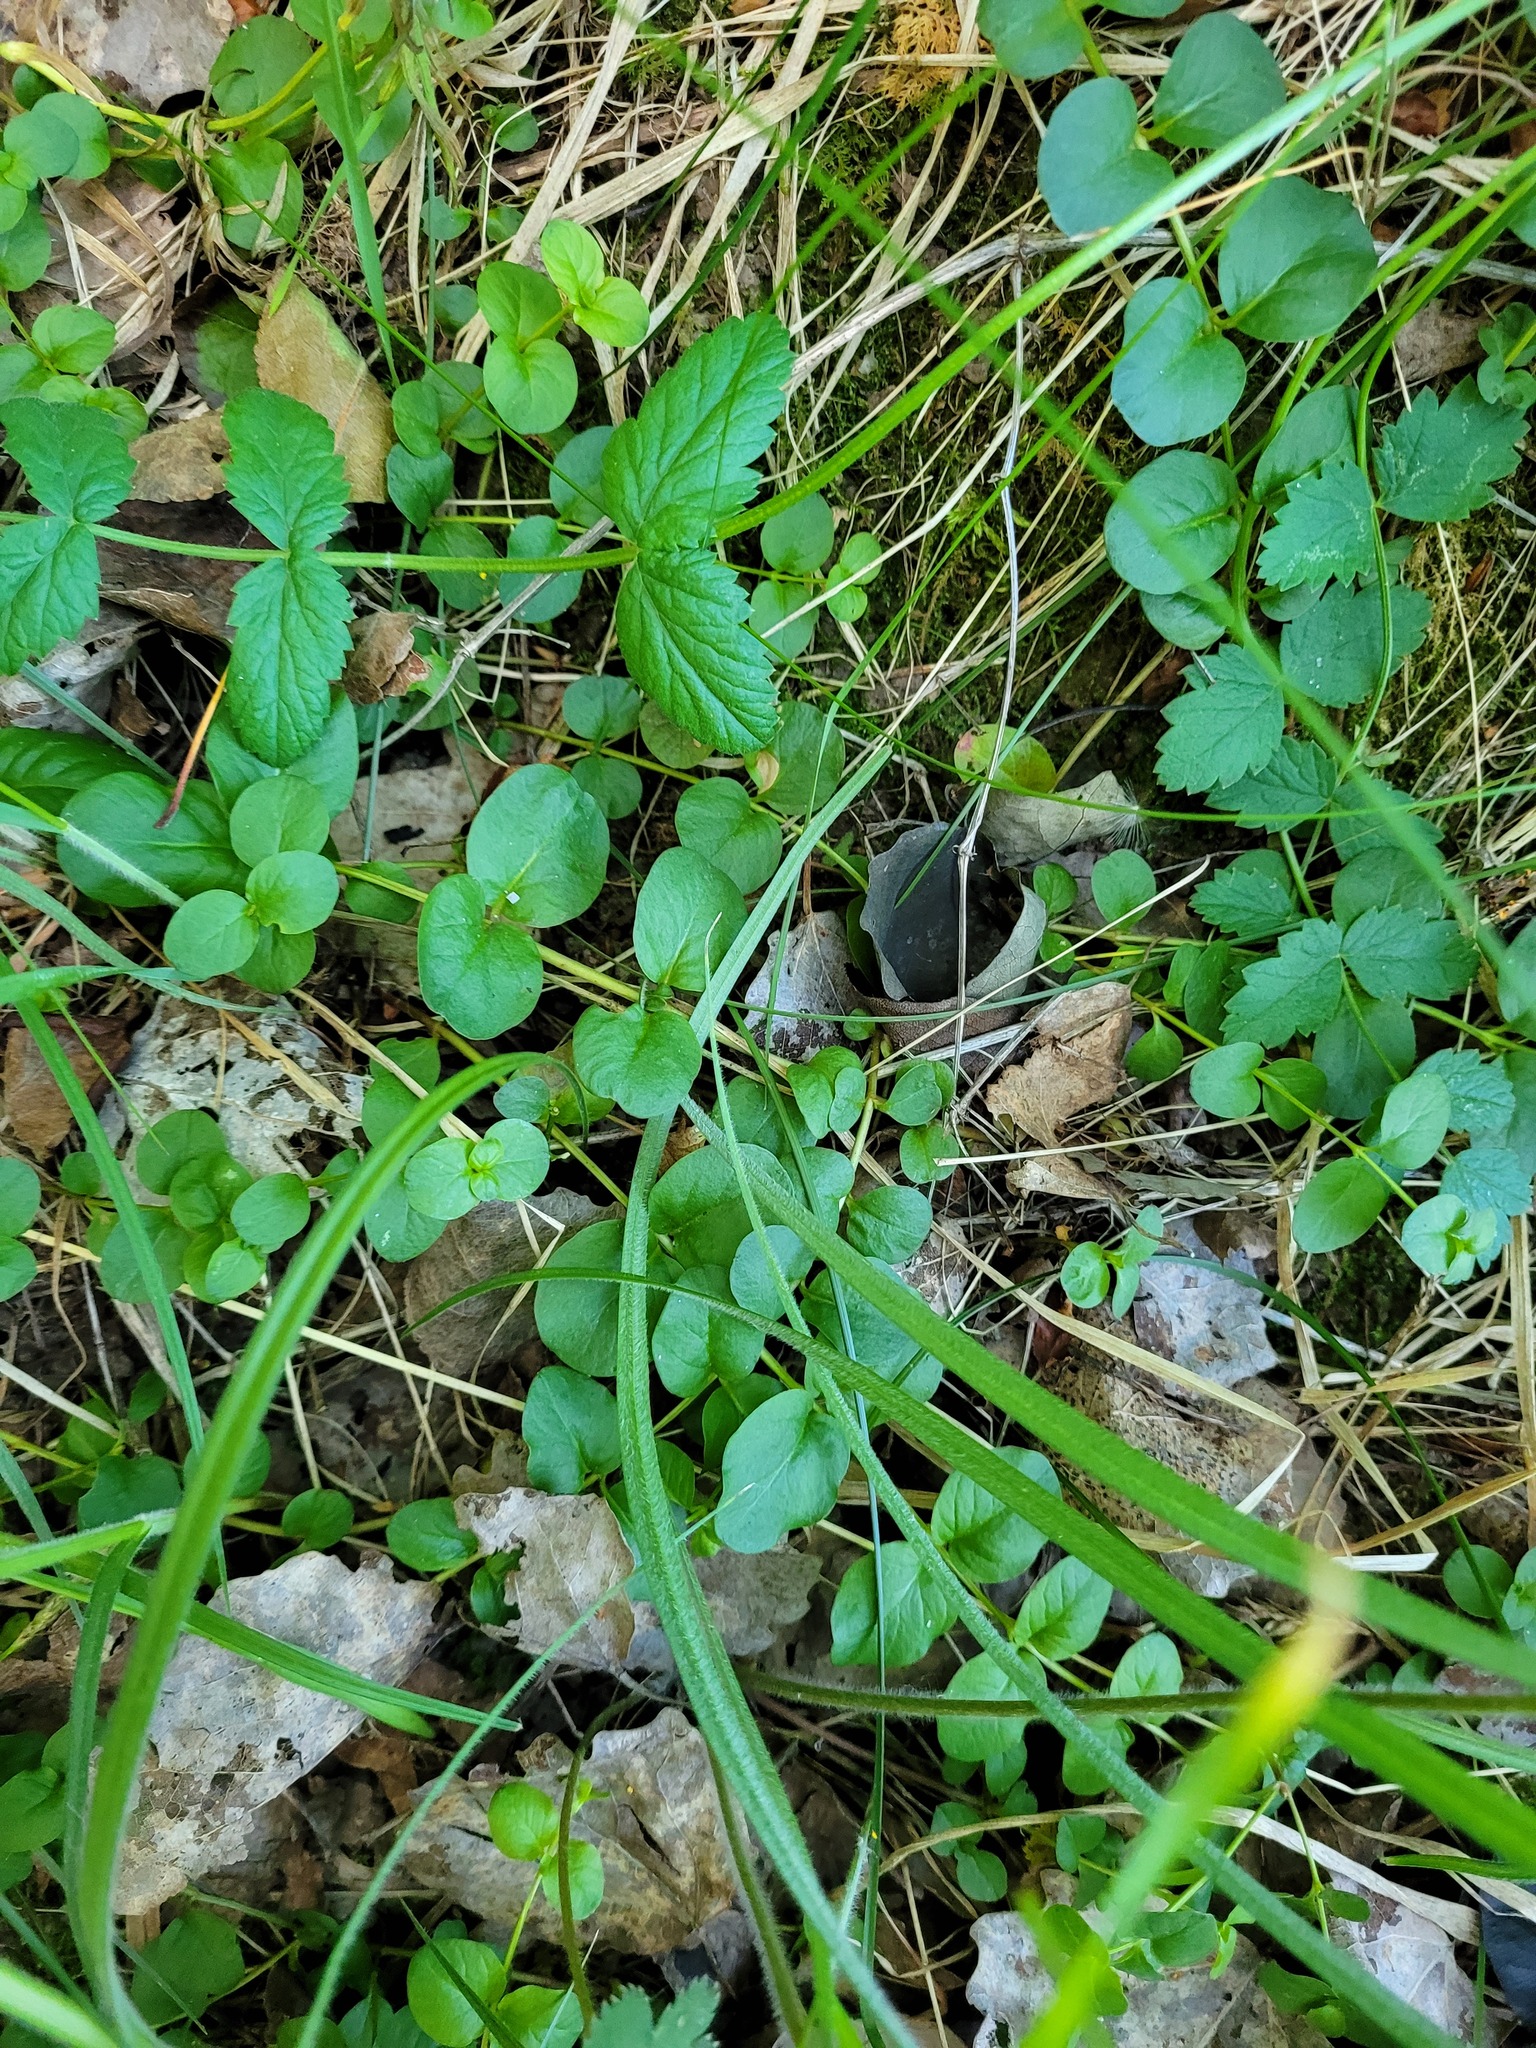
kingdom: Plantae
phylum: Tracheophyta
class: Magnoliopsida
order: Ericales
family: Primulaceae
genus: Lysimachia
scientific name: Lysimachia nummularia
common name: Moneywort
